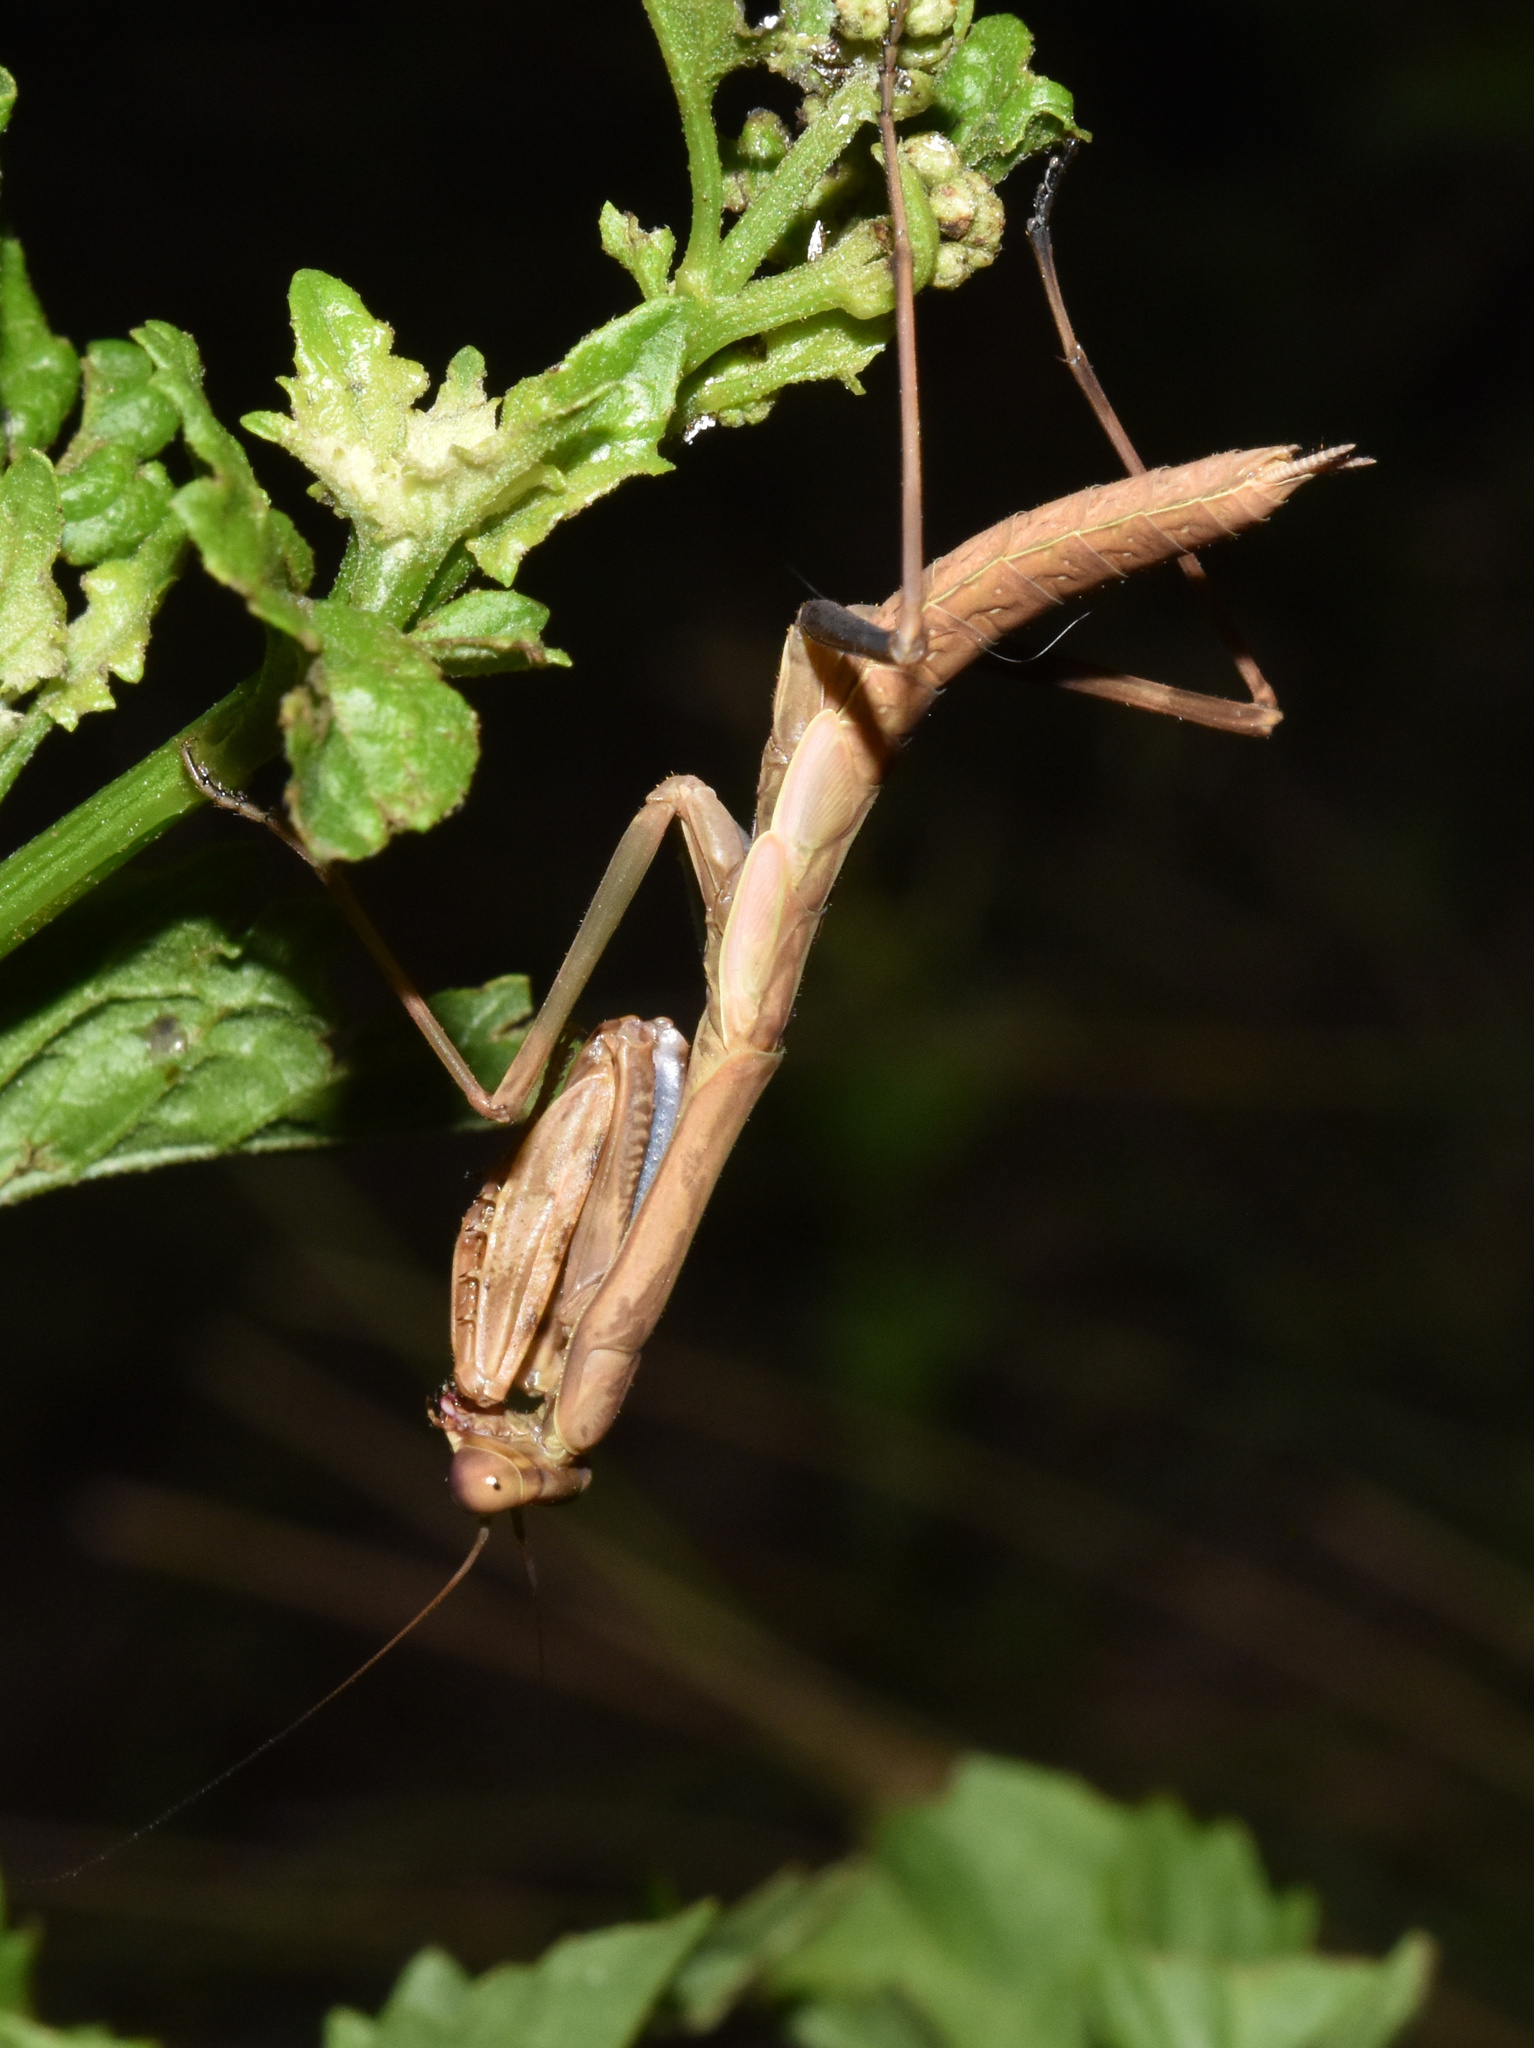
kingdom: Animalia
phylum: Arthropoda
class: Insecta
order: Mantodea
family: Mantidae
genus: Polyspilota
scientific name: Polyspilota aeruginosa
